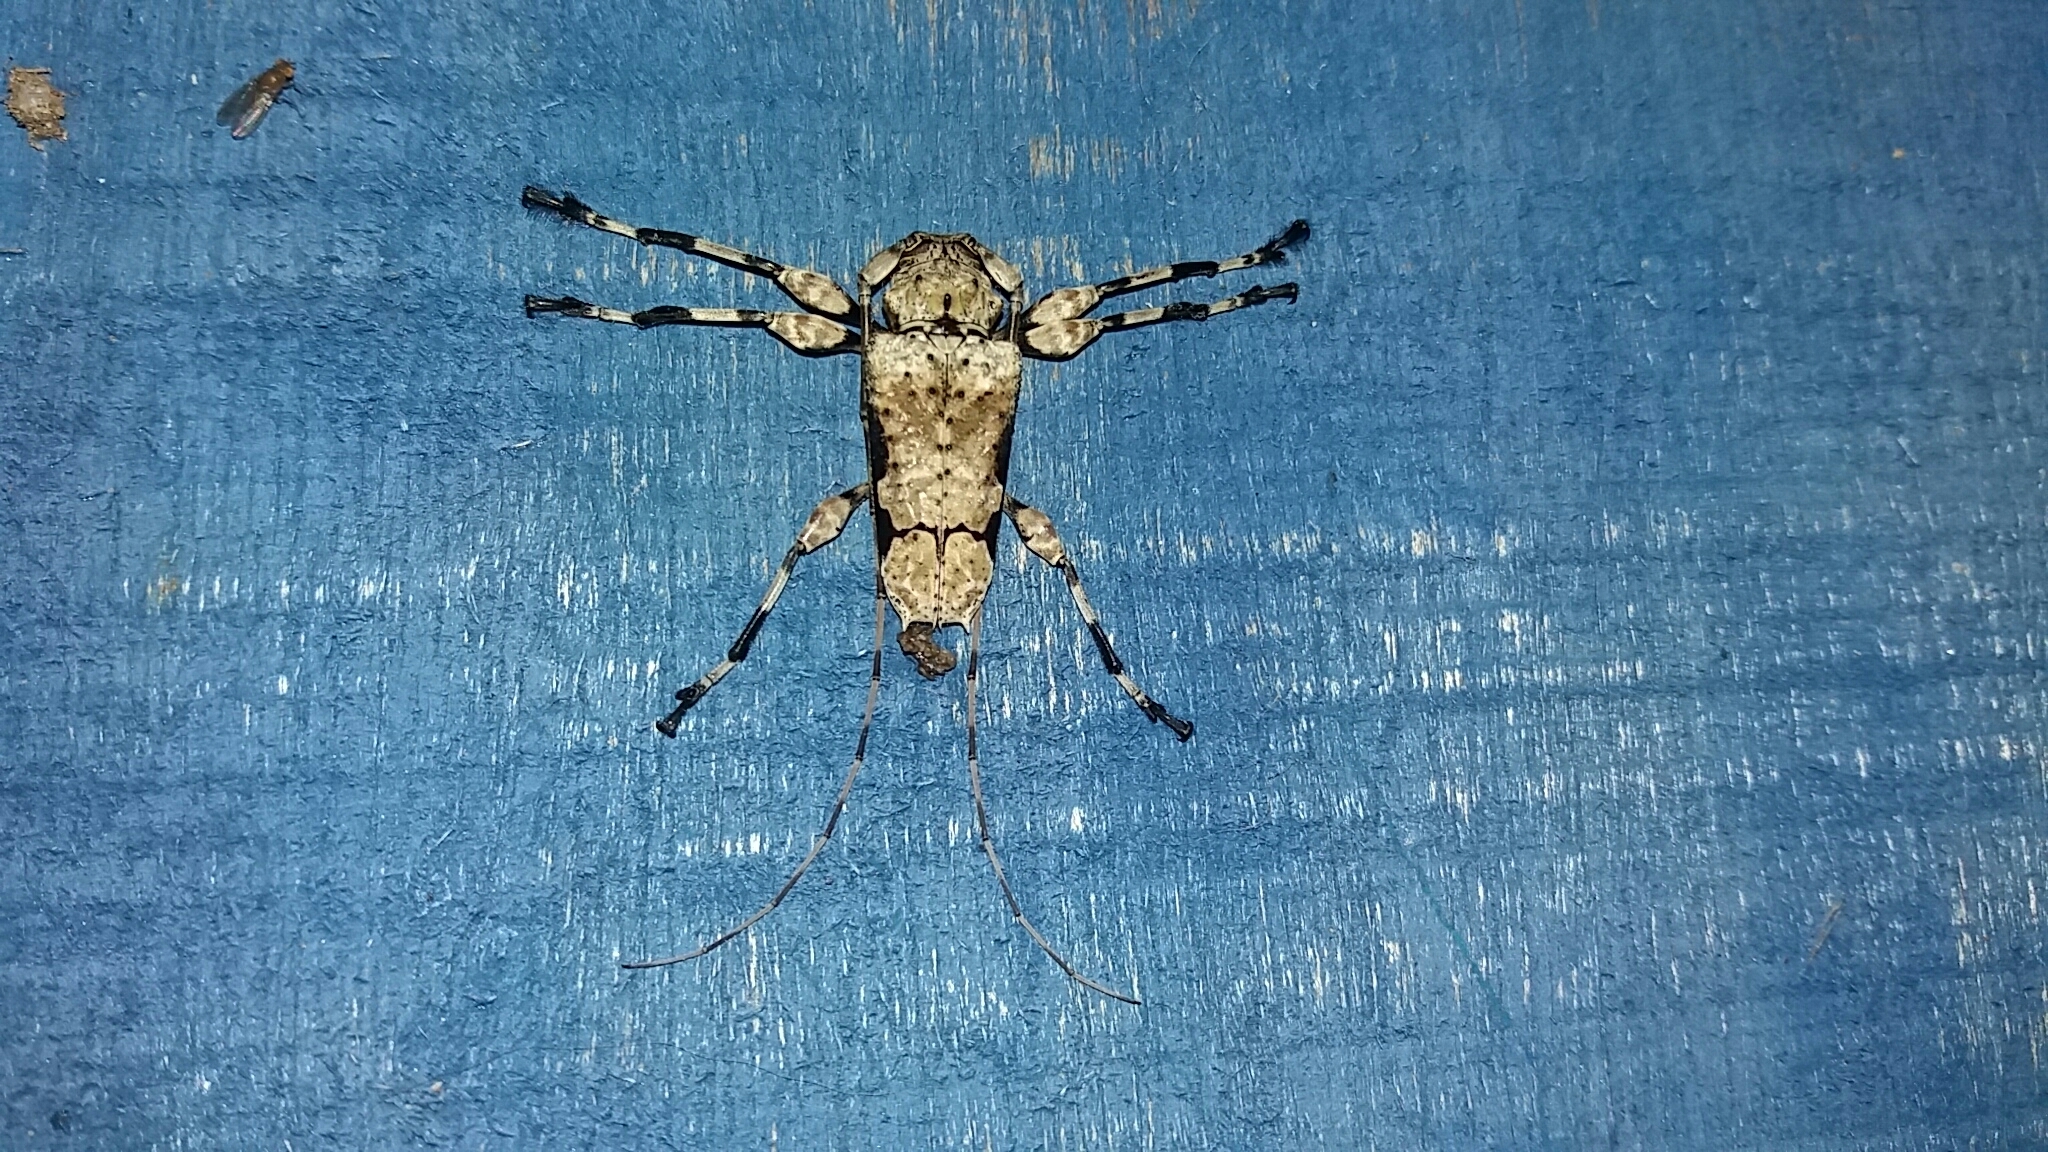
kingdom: Animalia
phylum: Arthropoda
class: Insecta
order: Coleoptera
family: Cerambycidae
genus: Oreodera
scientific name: Oreodera glauca
